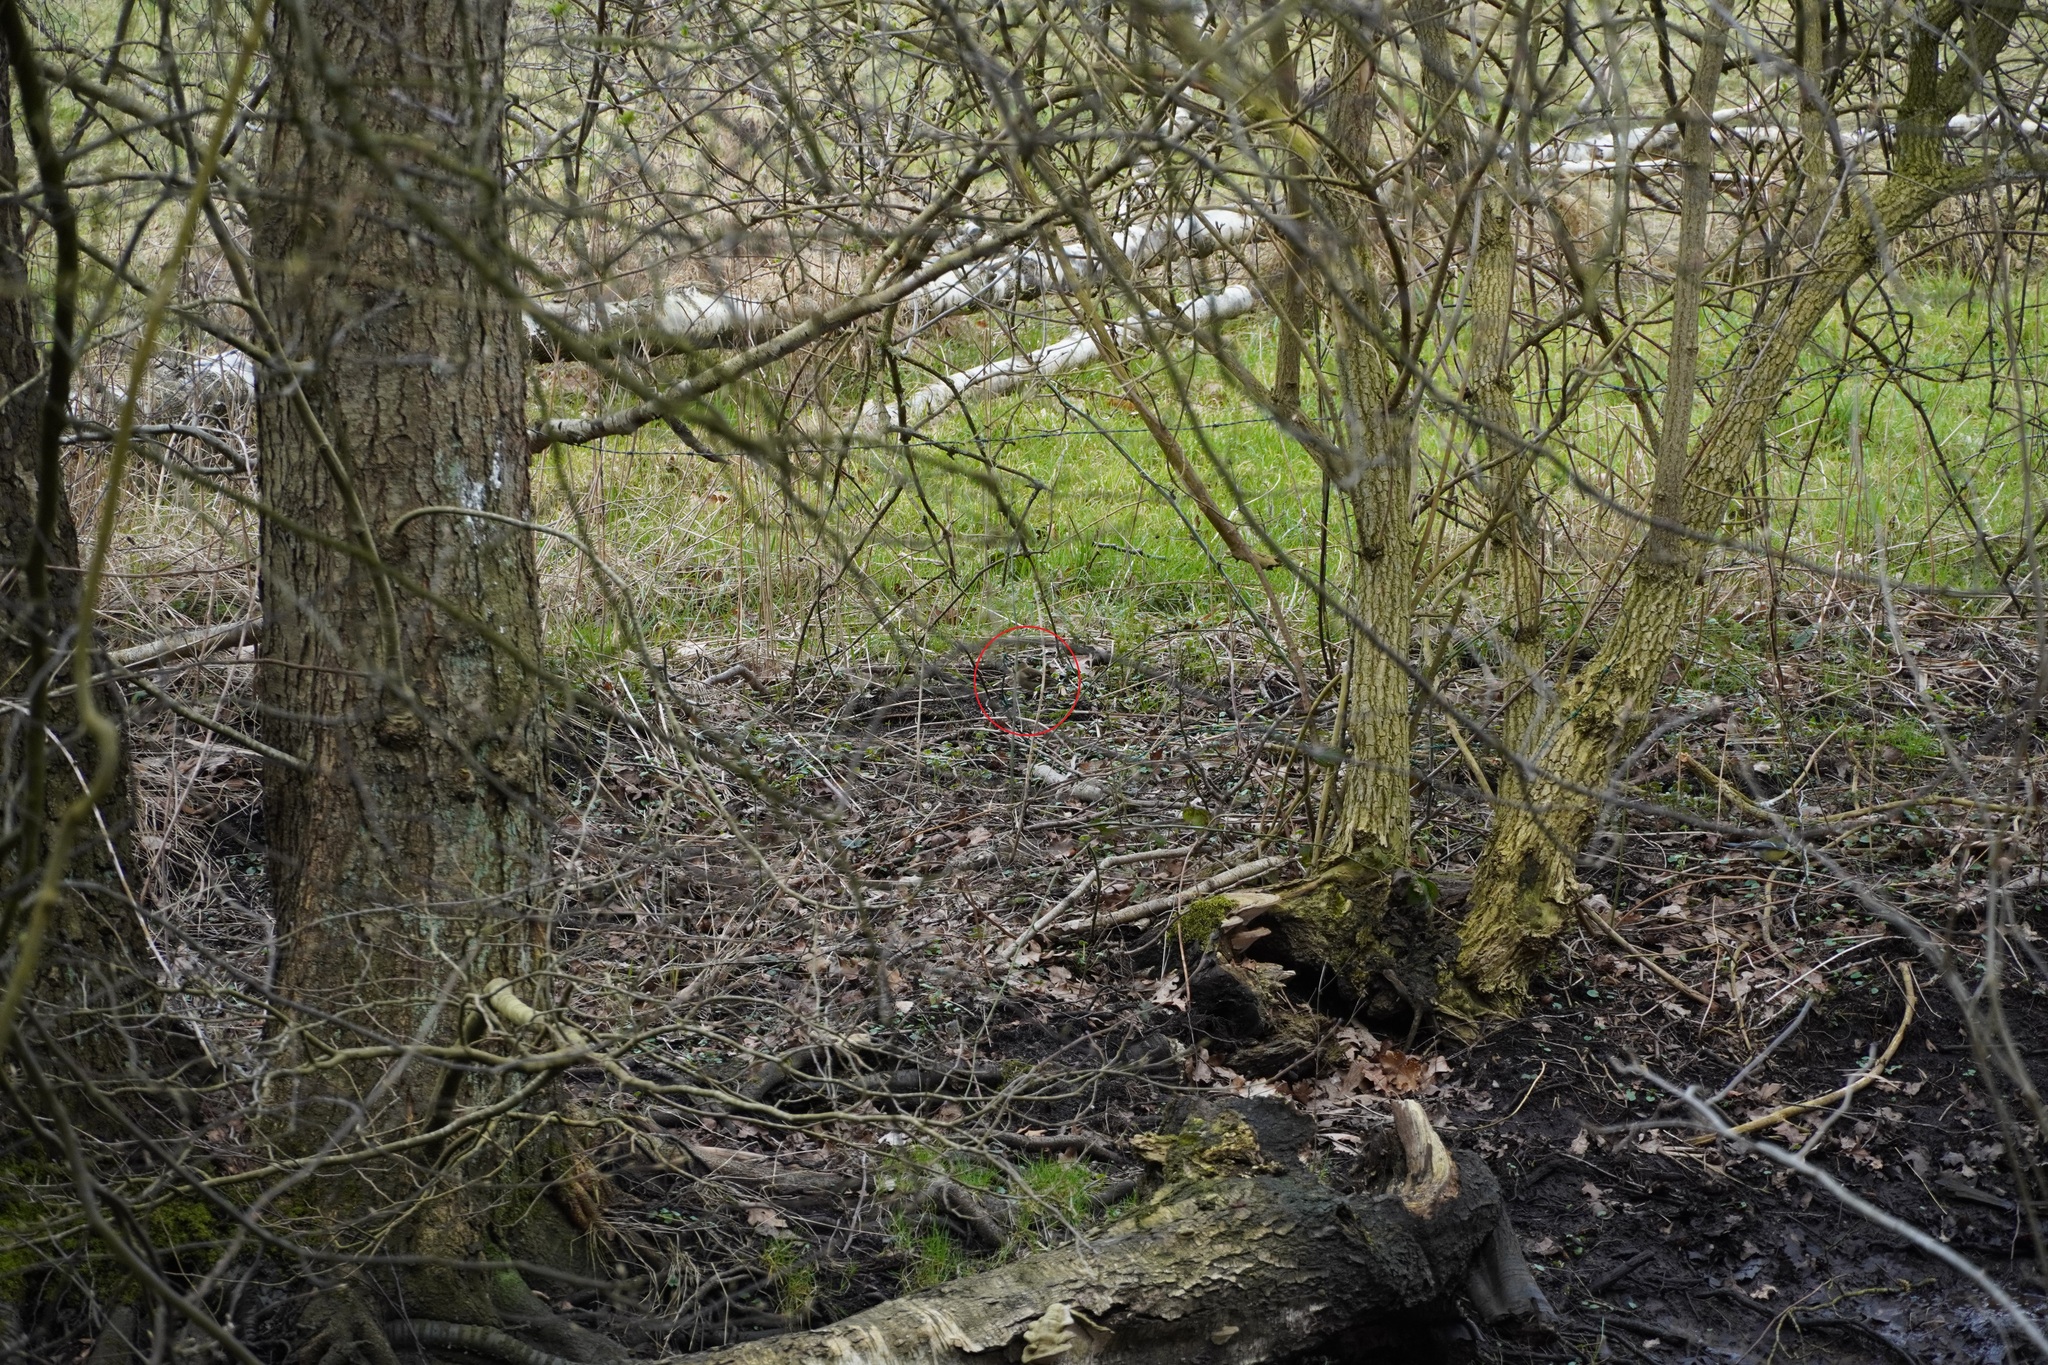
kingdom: Animalia
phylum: Chordata
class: Aves
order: Passeriformes
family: Fringillidae
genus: Fringilla
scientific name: Fringilla coelebs
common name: Common chaffinch
